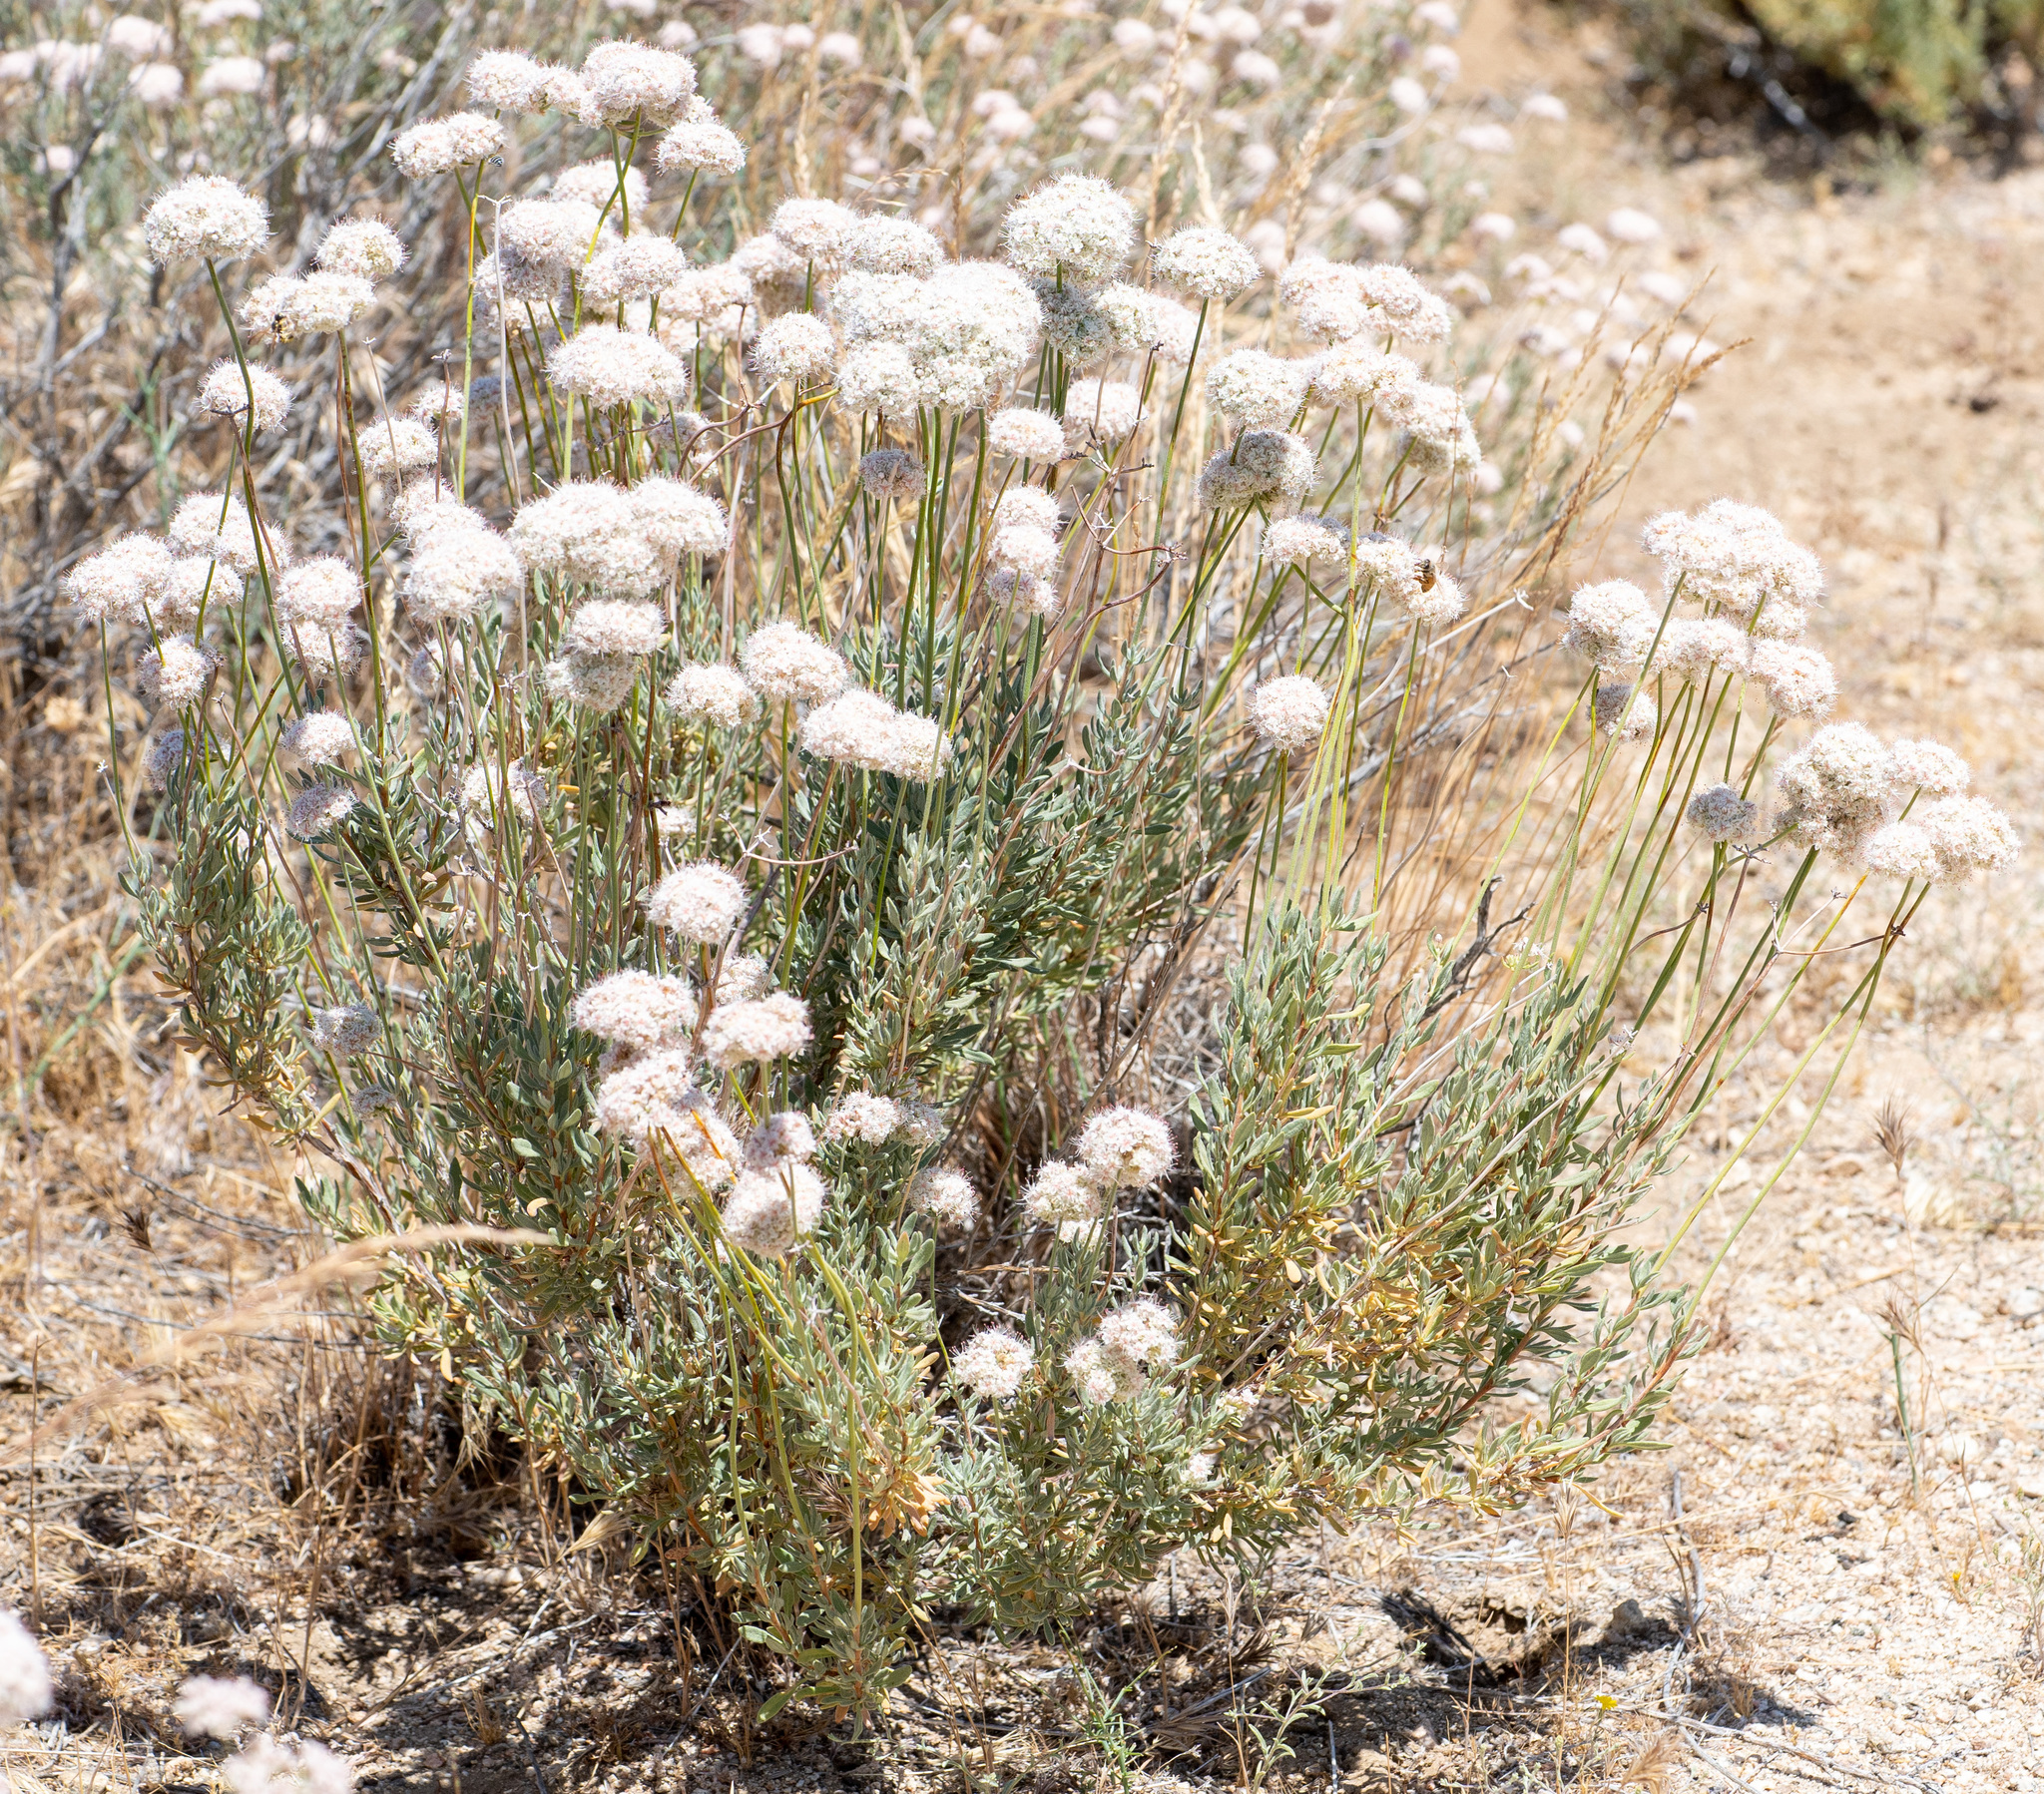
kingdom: Plantae
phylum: Tracheophyta
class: Magnoliopsida
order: Caryophyllales
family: Polygonaceae
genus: Eriogonum
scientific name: Eriogonum fasciculatum
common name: California wild buckwheat
